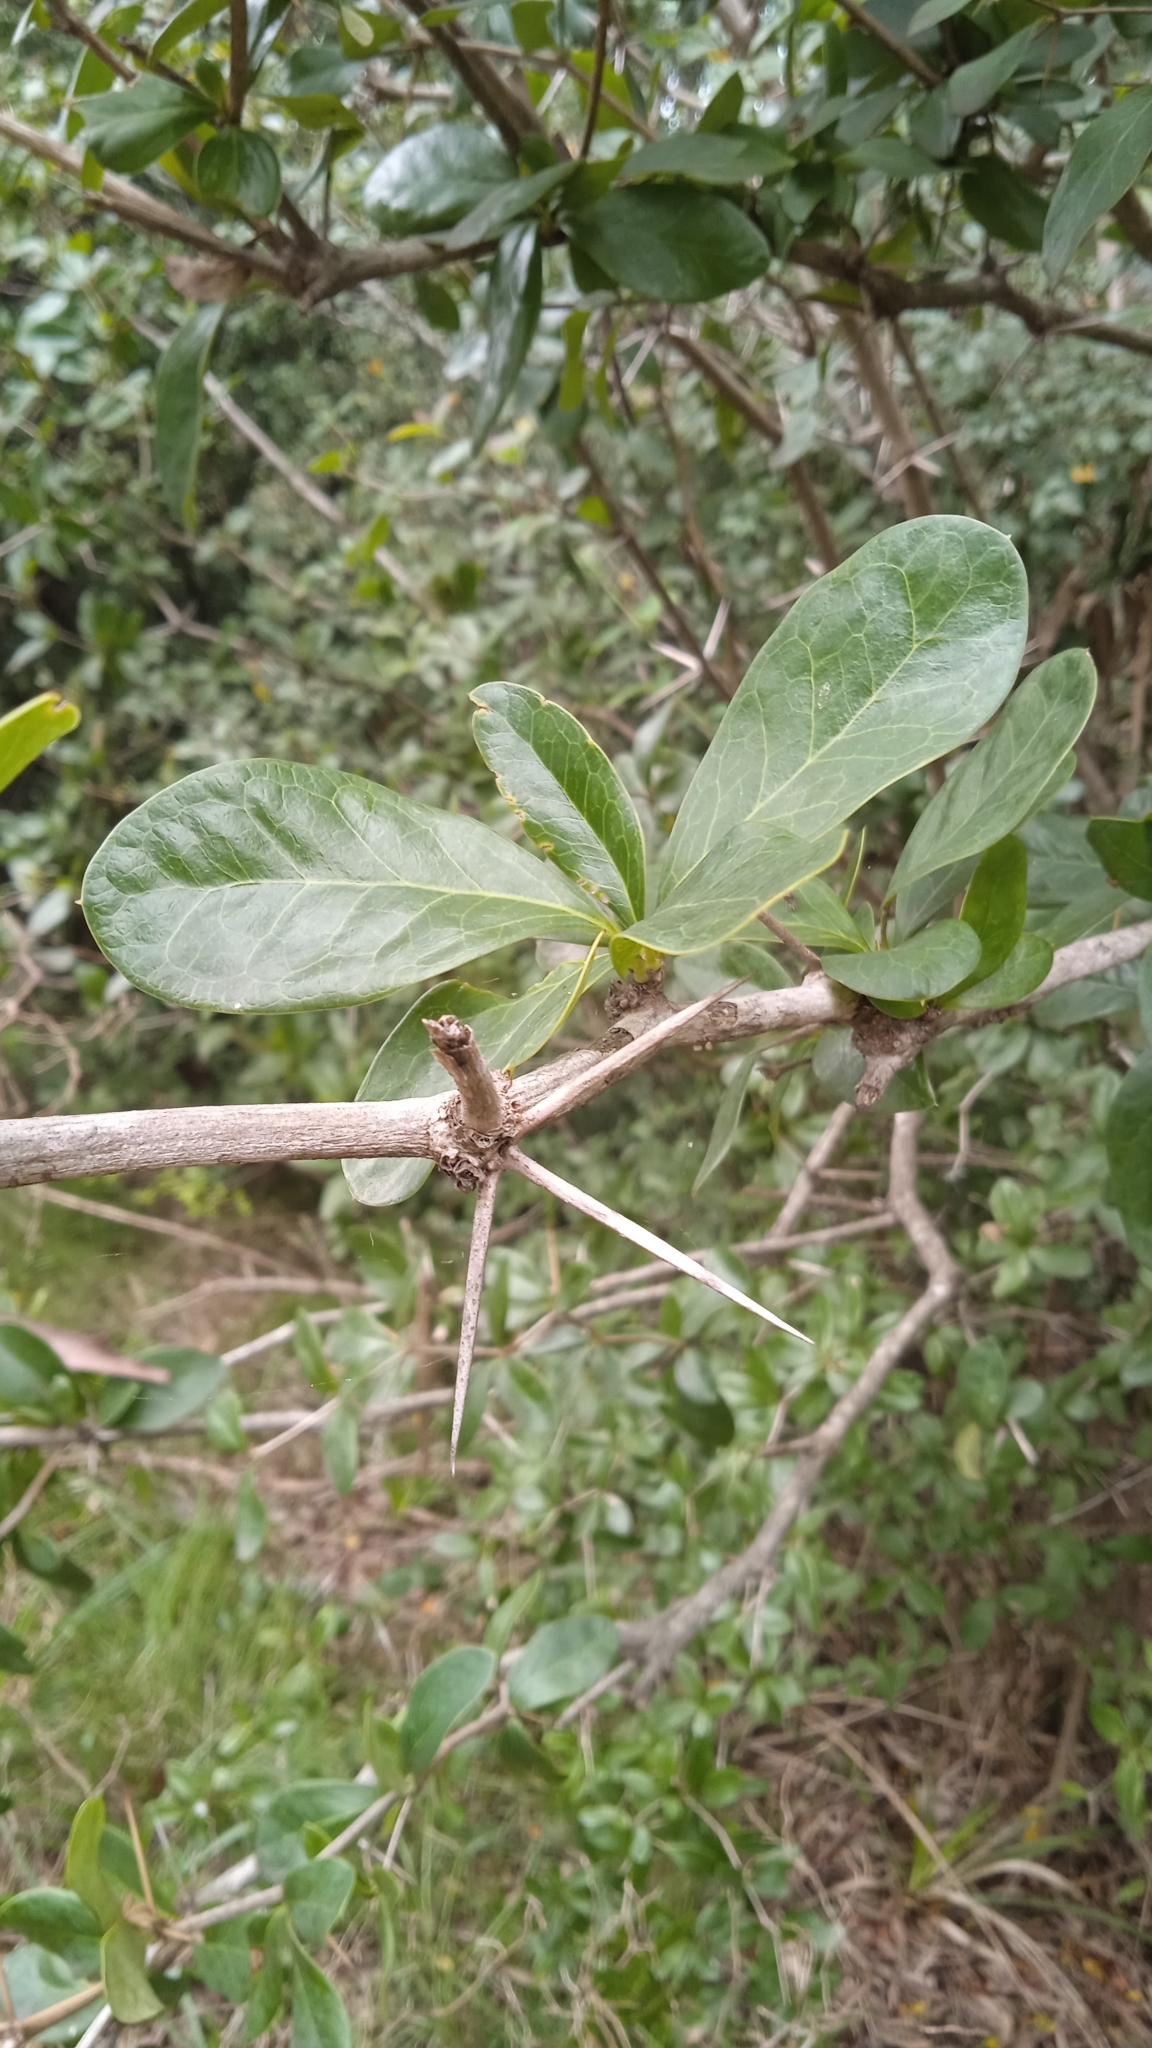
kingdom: Plantae
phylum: Tracheophyta
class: Magnoliopsida
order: Ranunculales
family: Berberidaceae
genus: Berberis
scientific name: Berberis laurina
